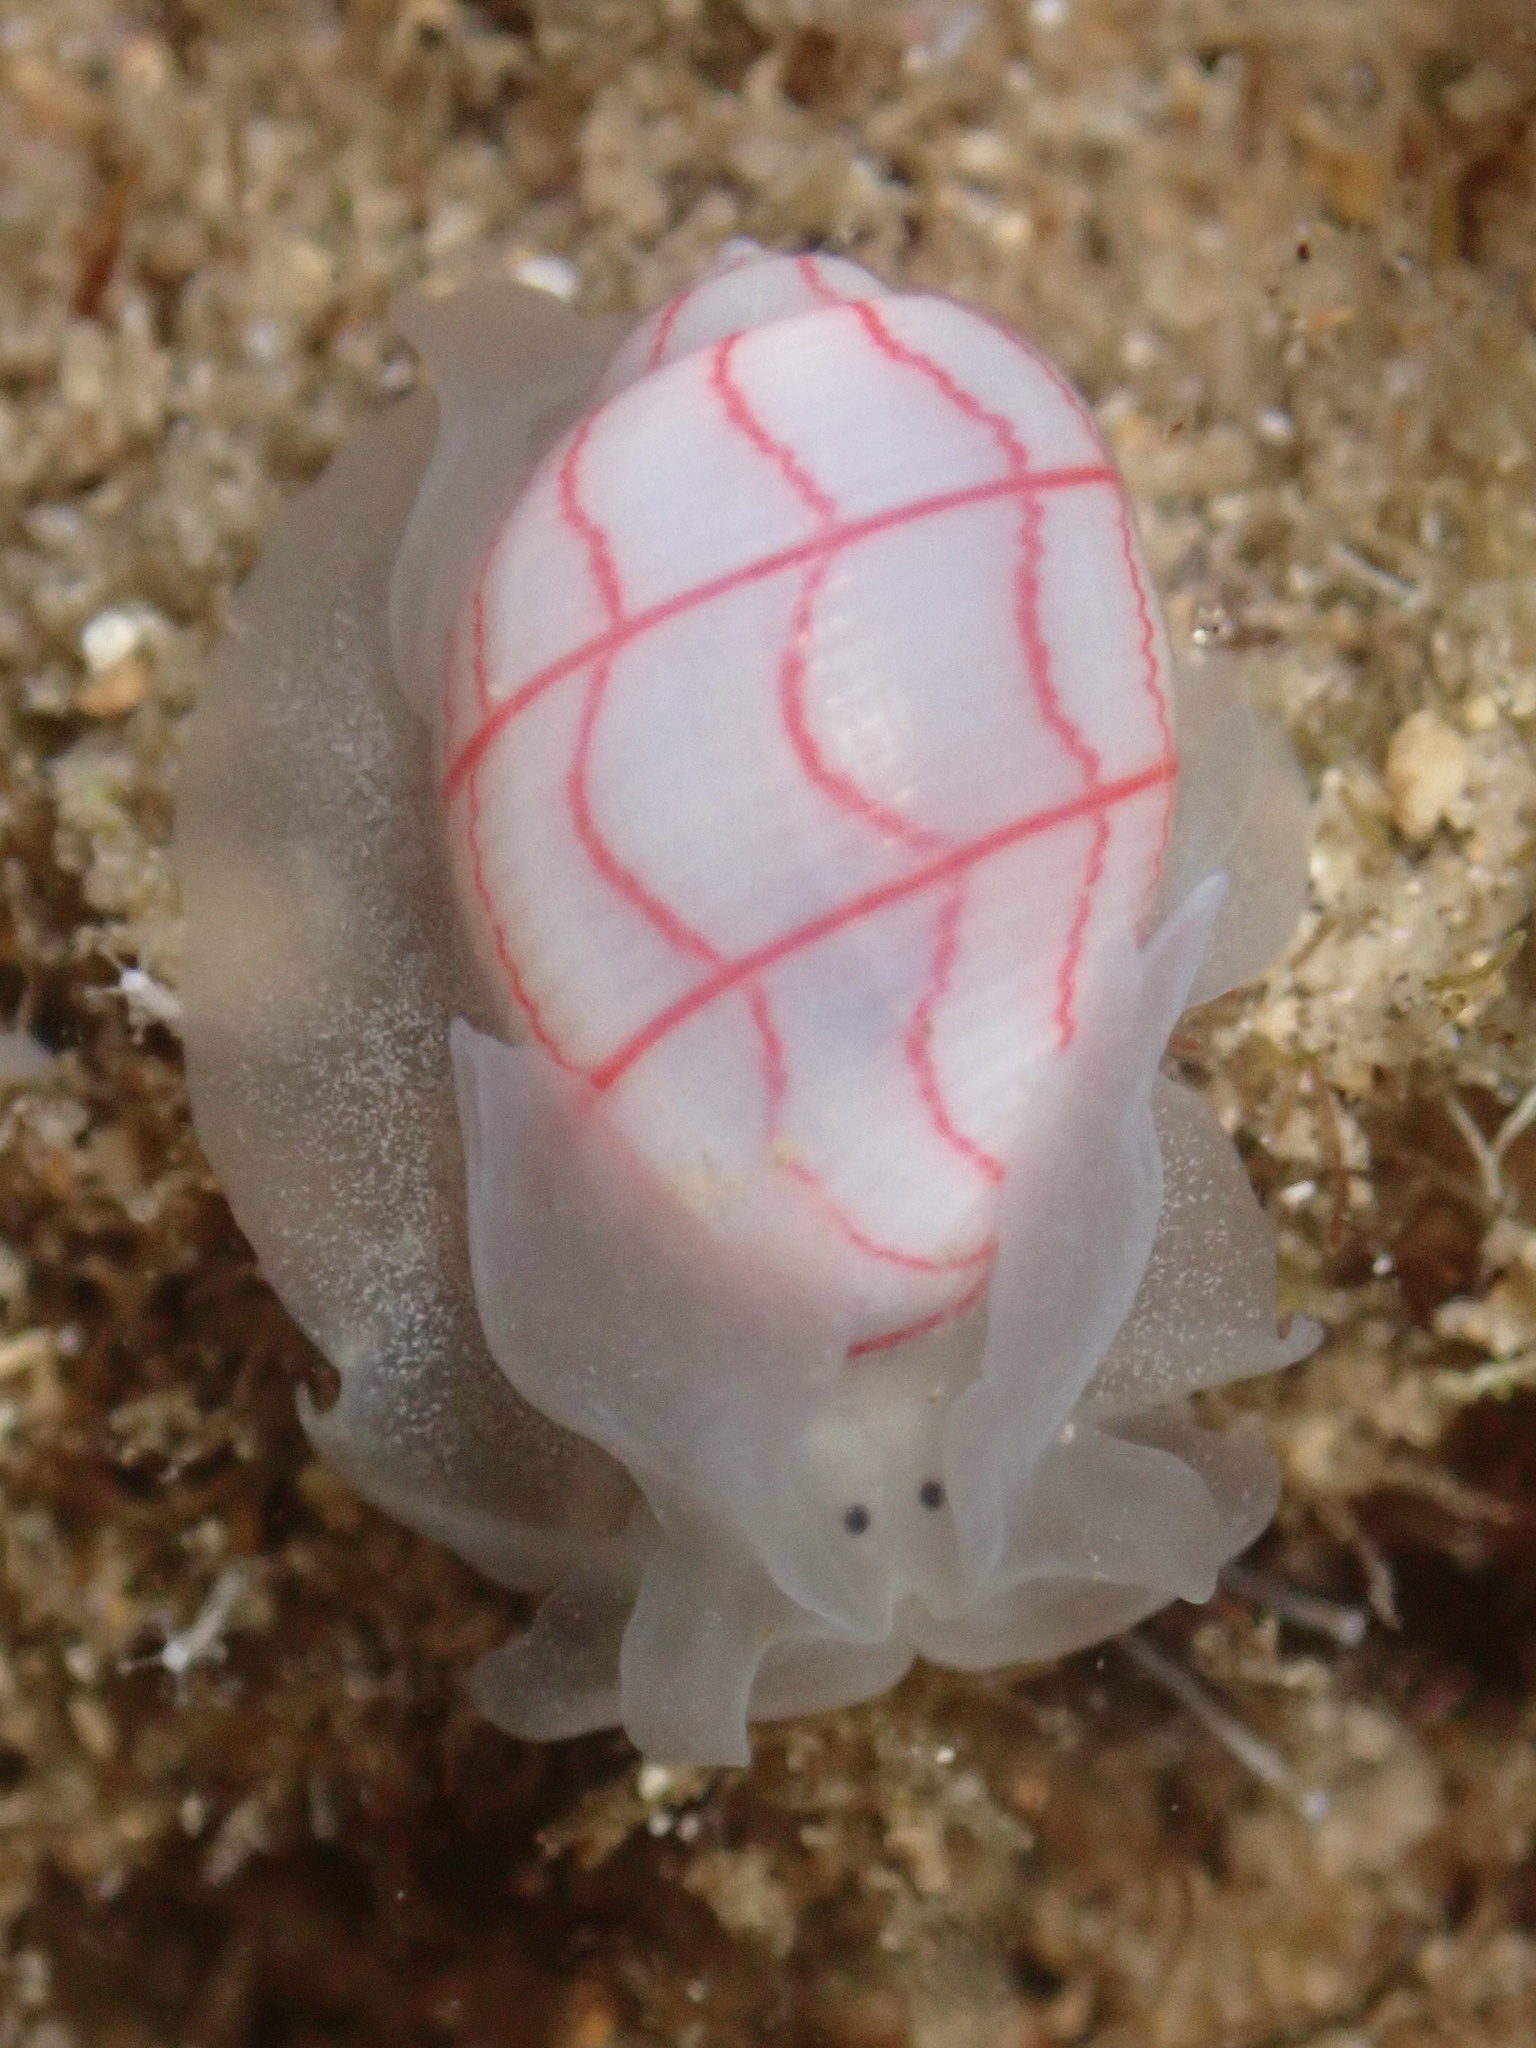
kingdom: Animalia
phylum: Mollusca
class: Gastropoda
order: Cephalaspidea
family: Aplustridae
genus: Bullina
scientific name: Bullina lineata
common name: Lined bubble snail
